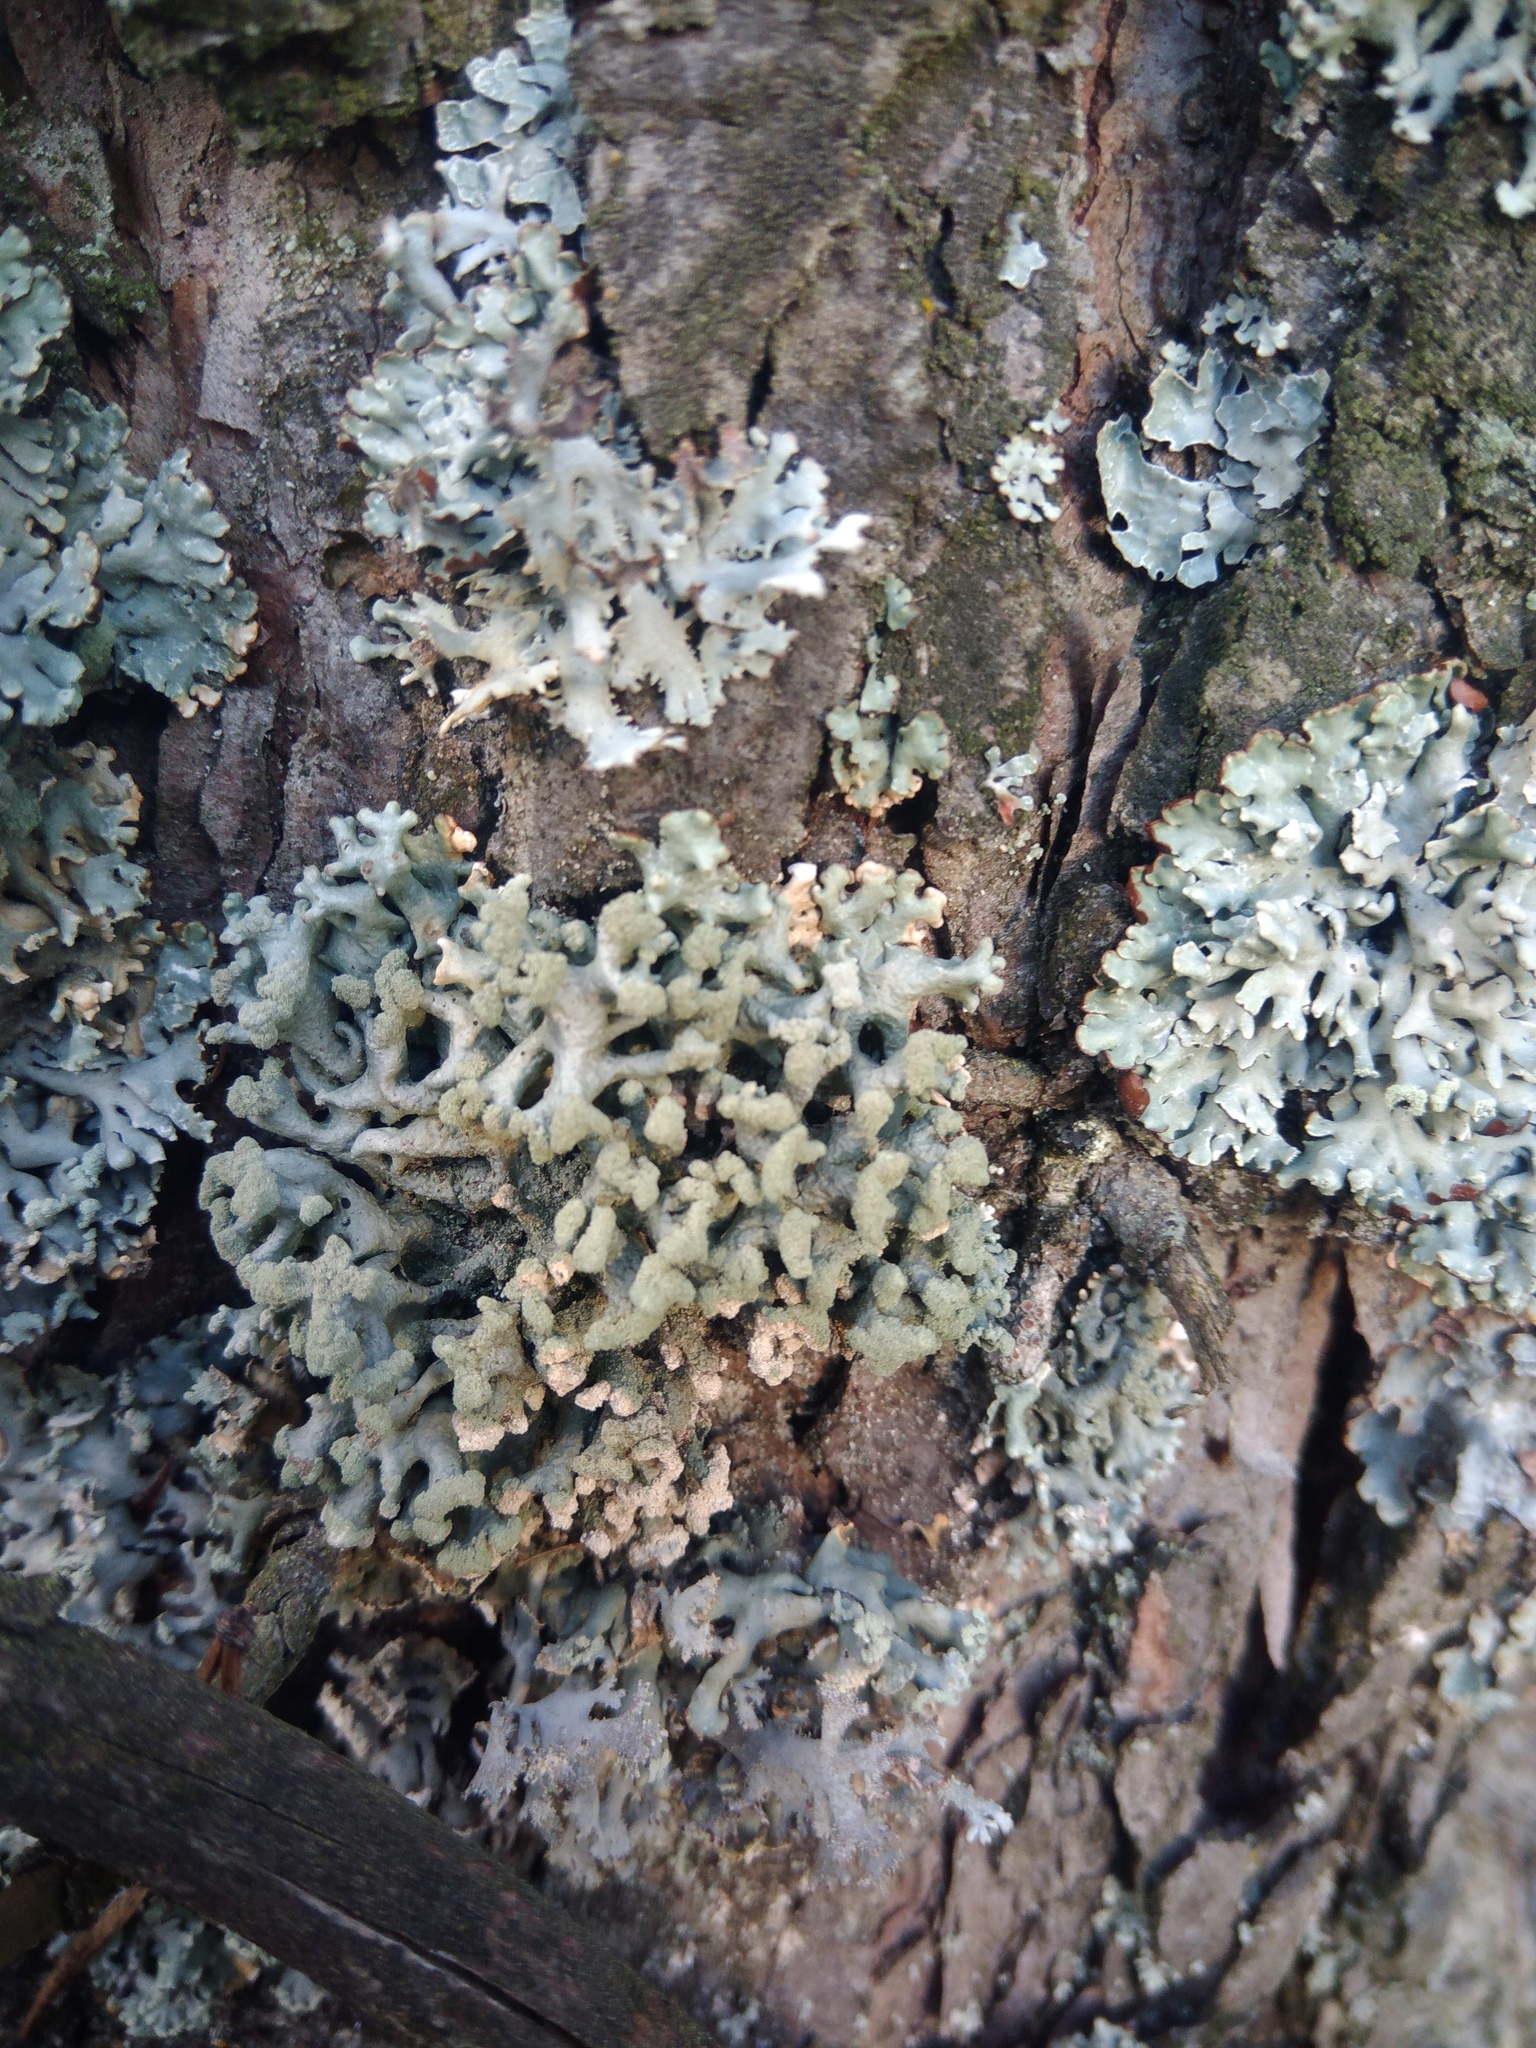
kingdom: Fungi
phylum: Ascomycota
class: Lecanoromycetes
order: Lecanorales
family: Parmeliaceae
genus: Hypogymnia
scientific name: Hypogymnia tubulosa
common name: Powder-headed tube lichen
